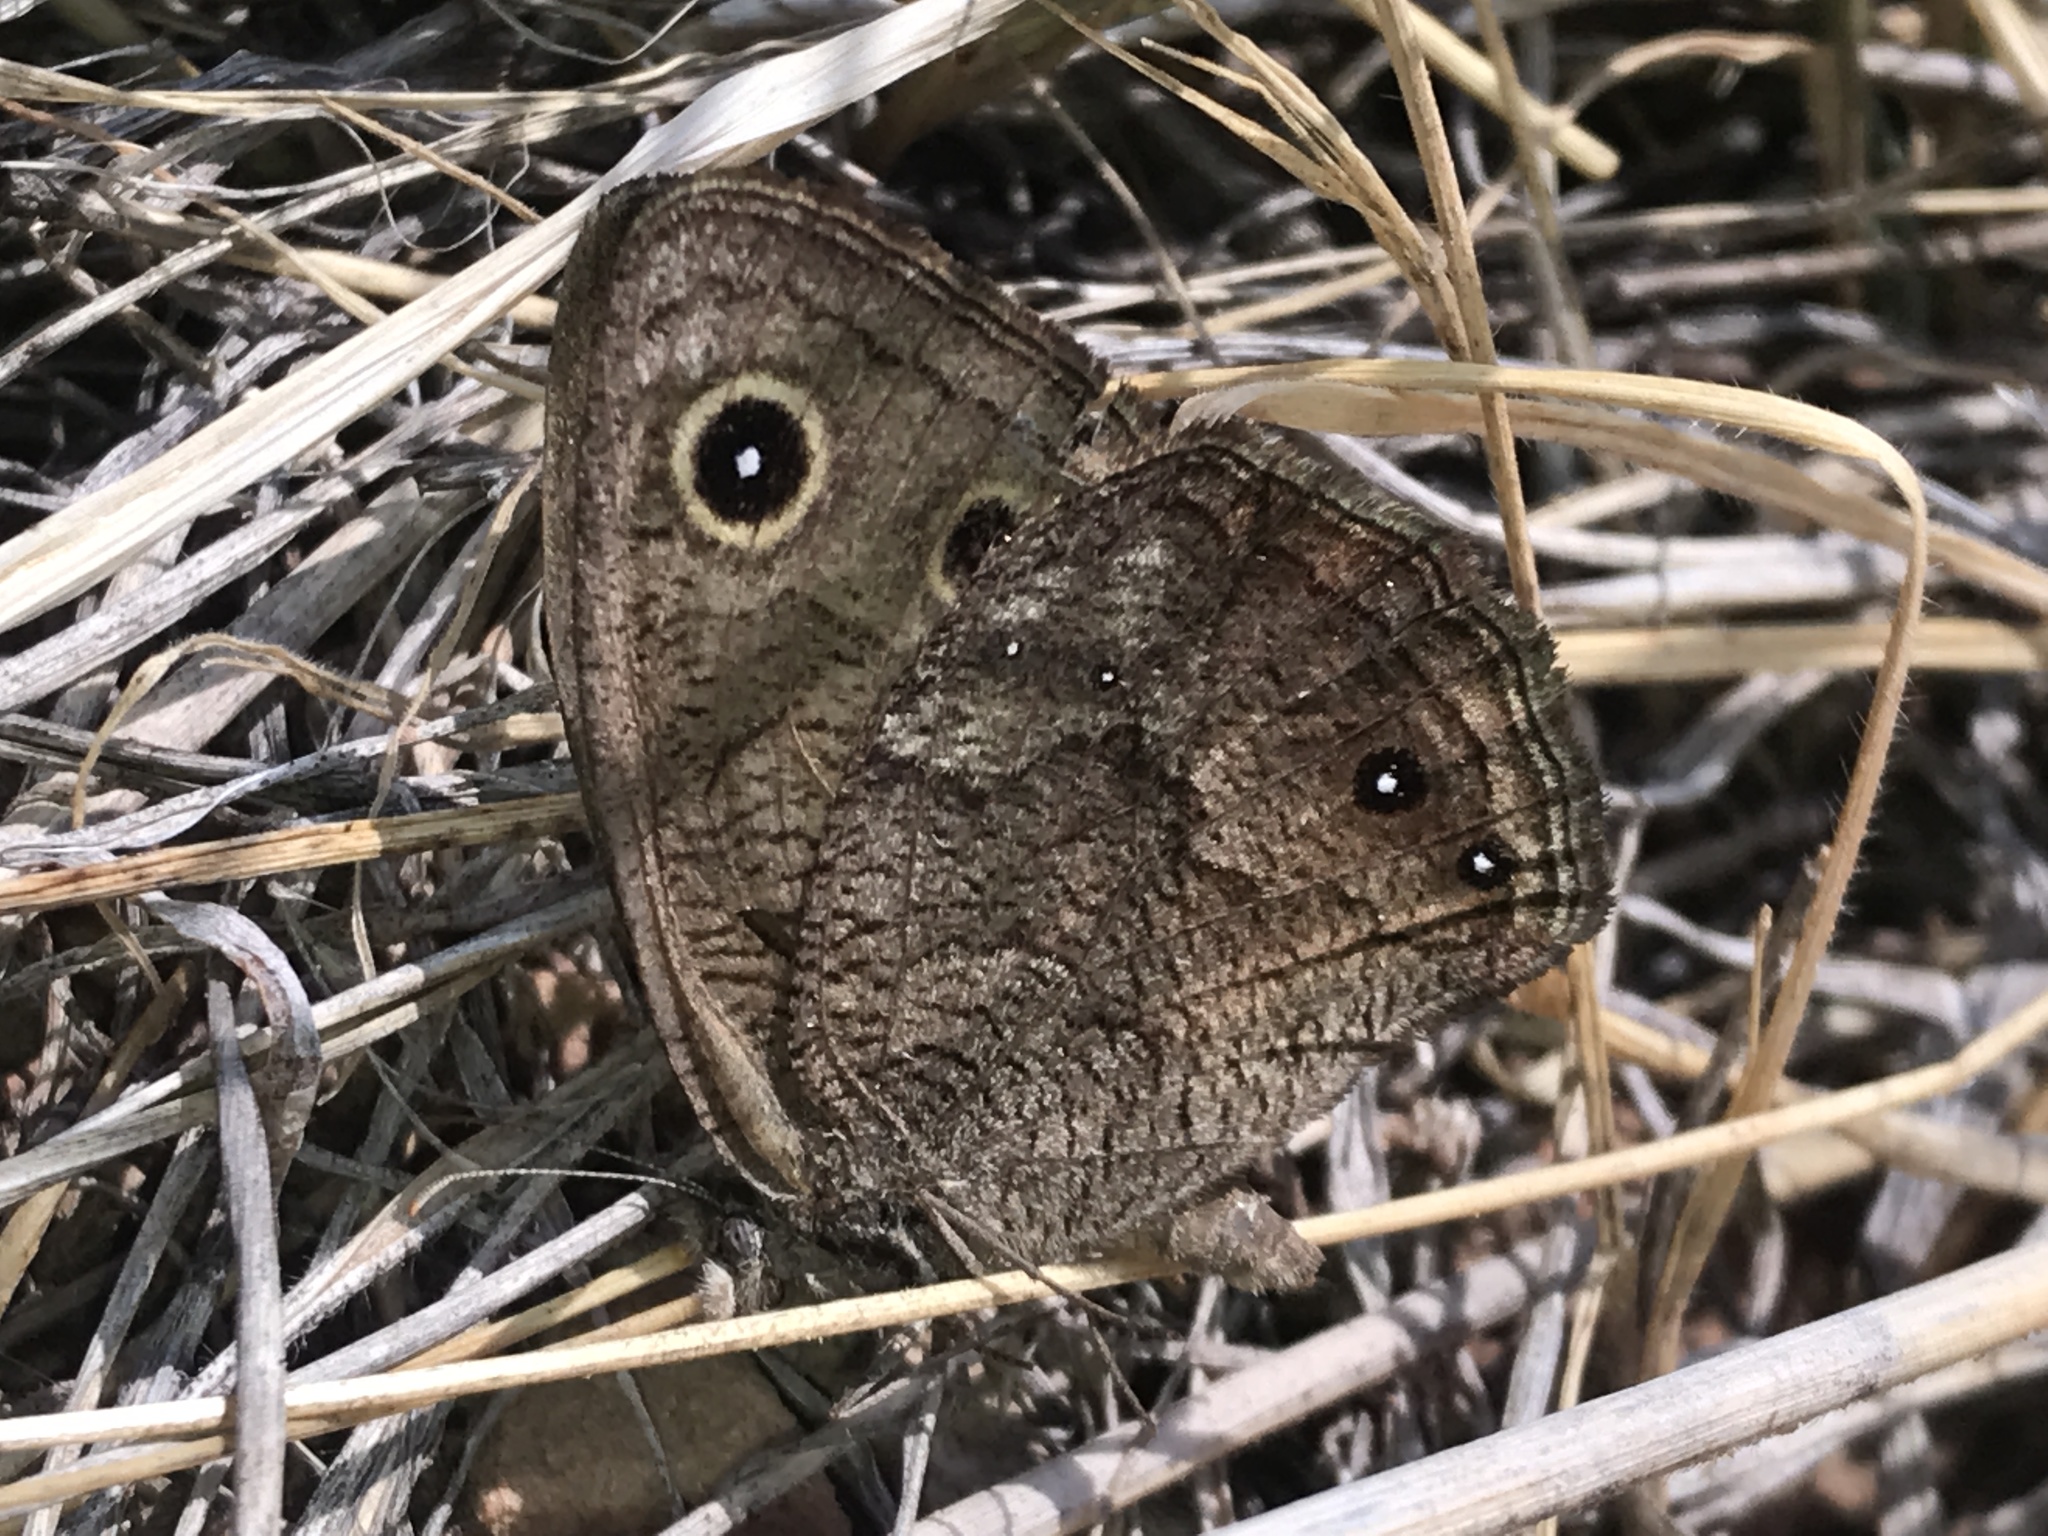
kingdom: Animalia
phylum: Arthropoda
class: Insecta
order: Lepidoptera
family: Nymphalidae
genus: Cercyonis
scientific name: Cercyonis sthenele
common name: Great basin wood-nymph
